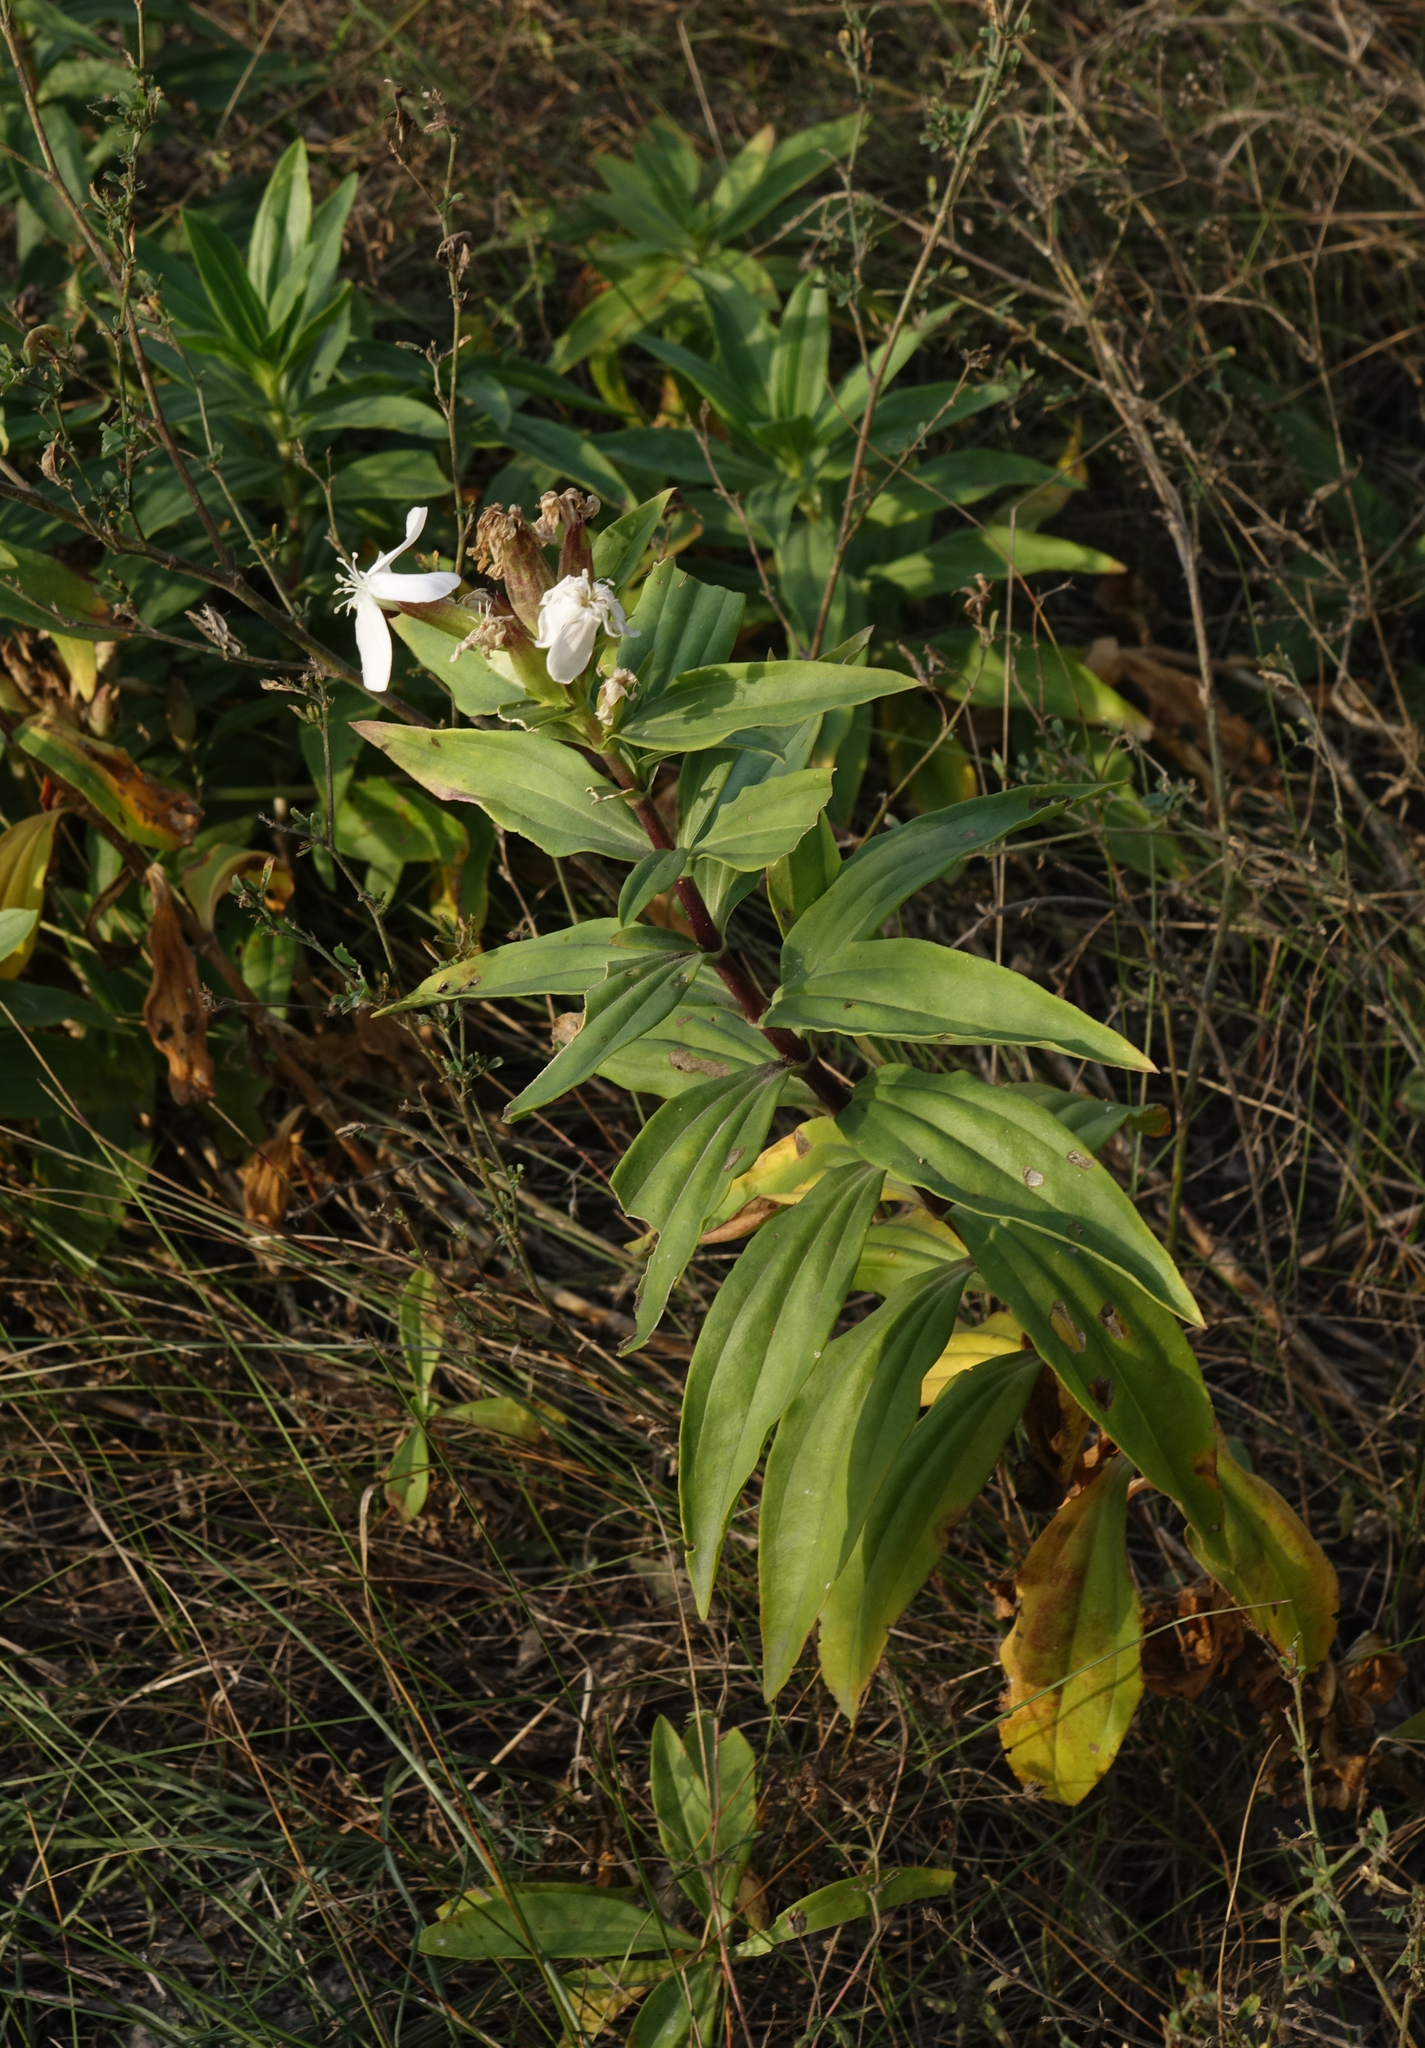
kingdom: Plantae
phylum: Tracheophyta
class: Magnoliopsida
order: Caryophyllales
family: Caryophyllaceae
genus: Saponaria
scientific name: Saponaria officinalis
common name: Soapwort
